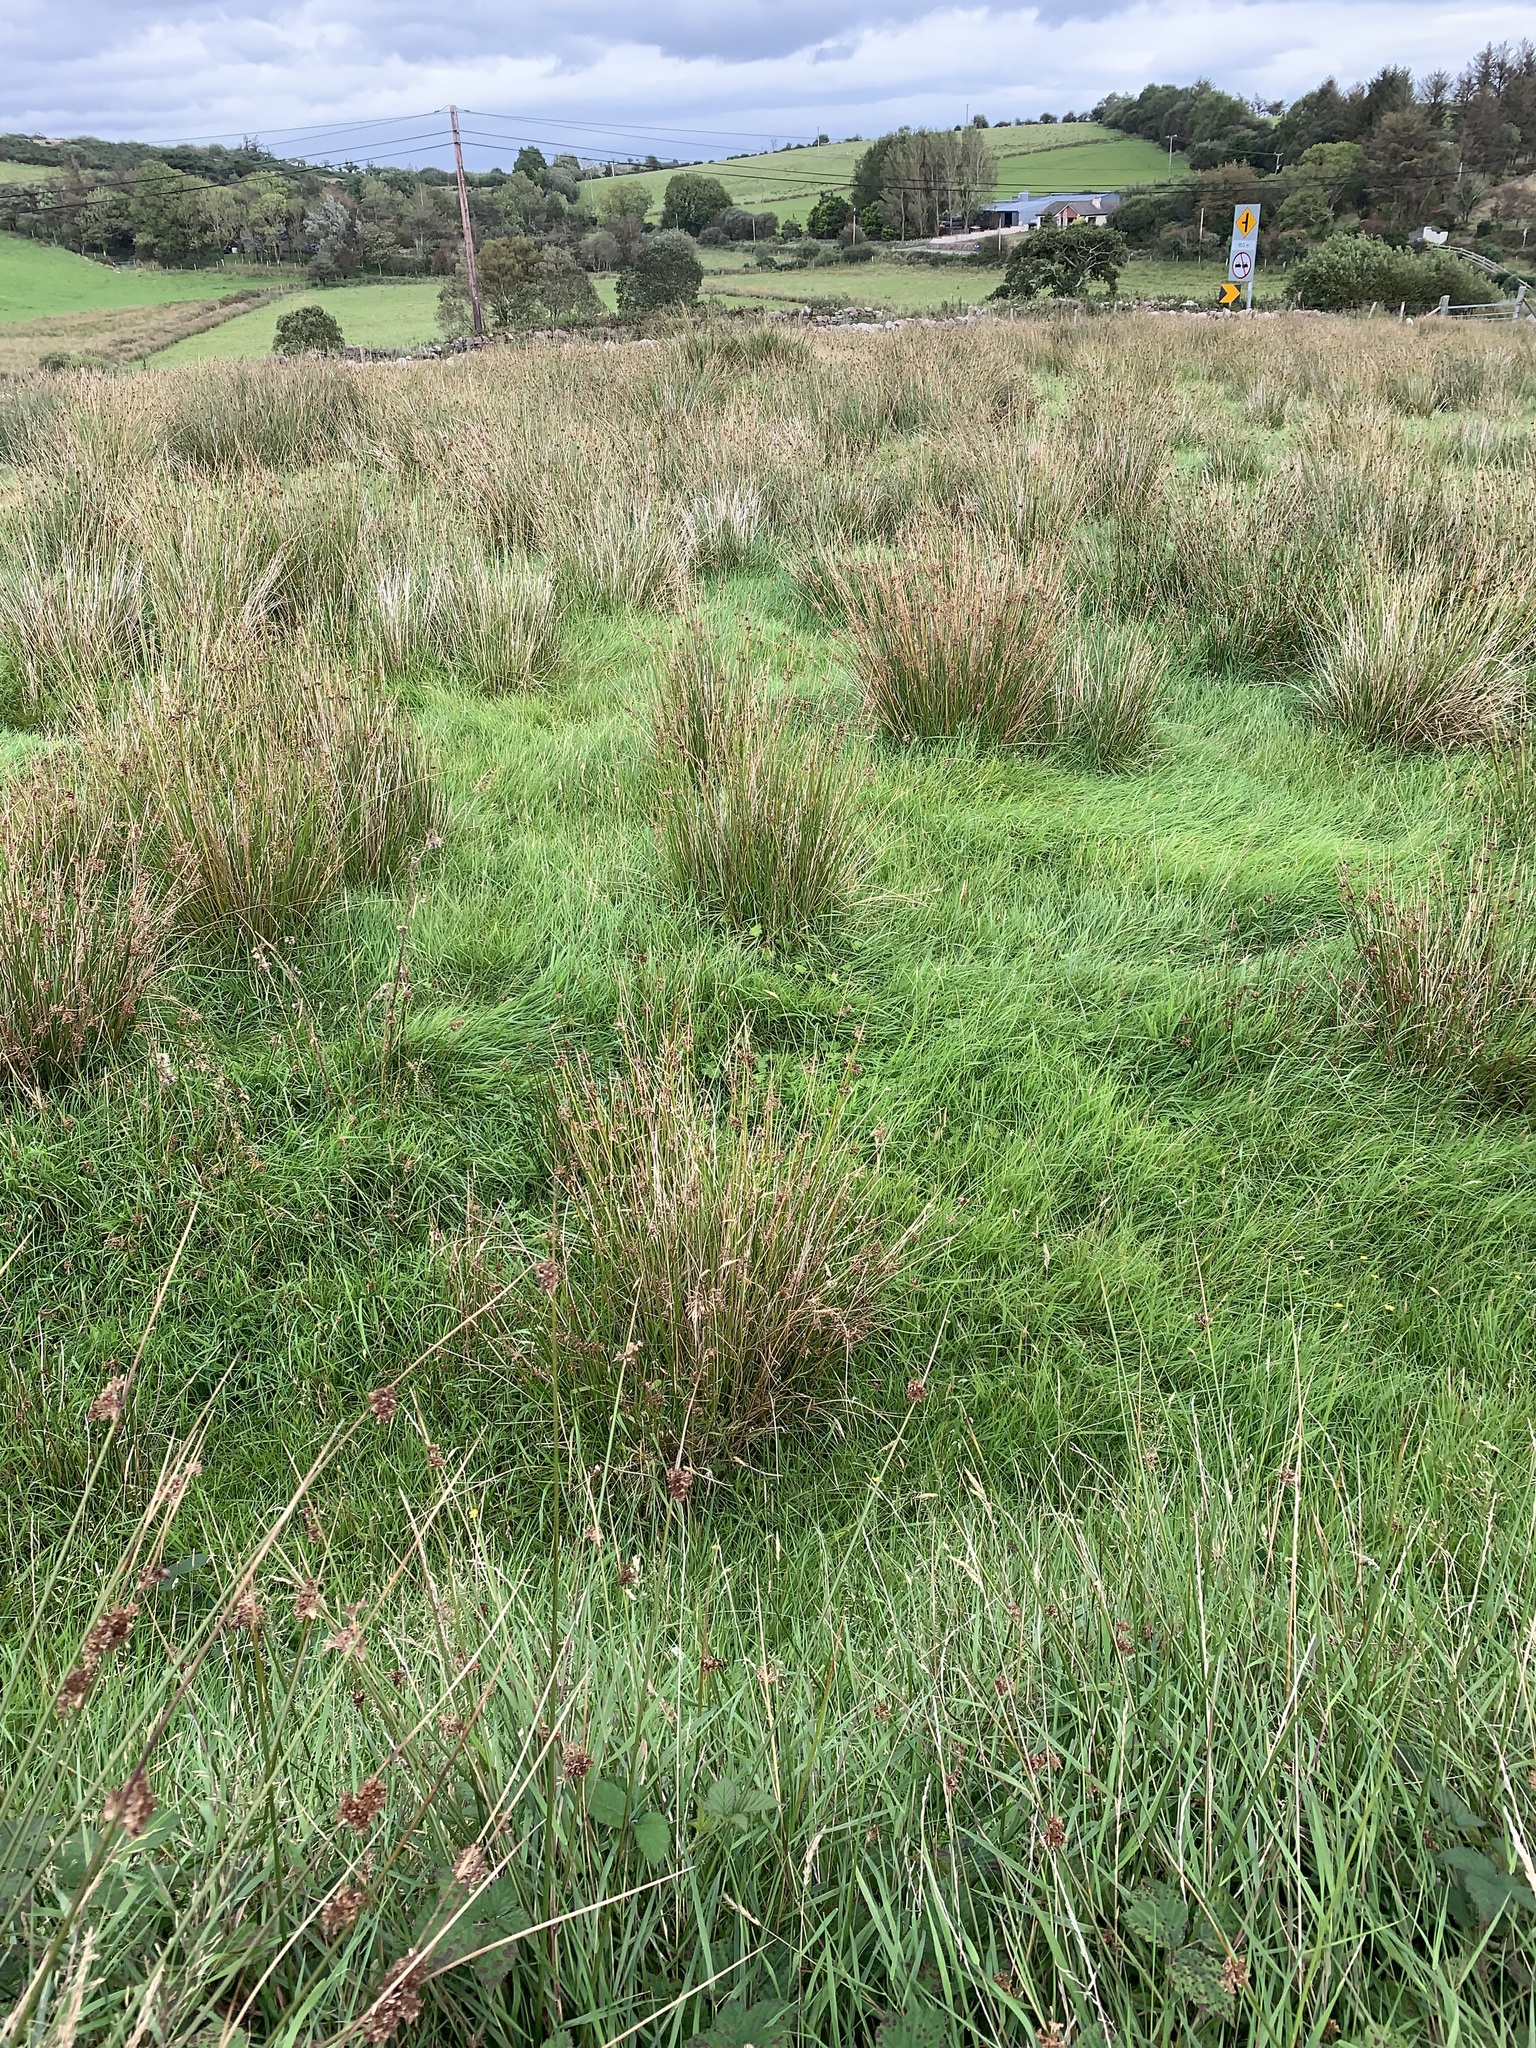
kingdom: Plantae
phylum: Tracheophyta
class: Liliopsida
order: Poales
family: Juncaceae
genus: Juncus
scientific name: Juncus effusus
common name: Soft rush
